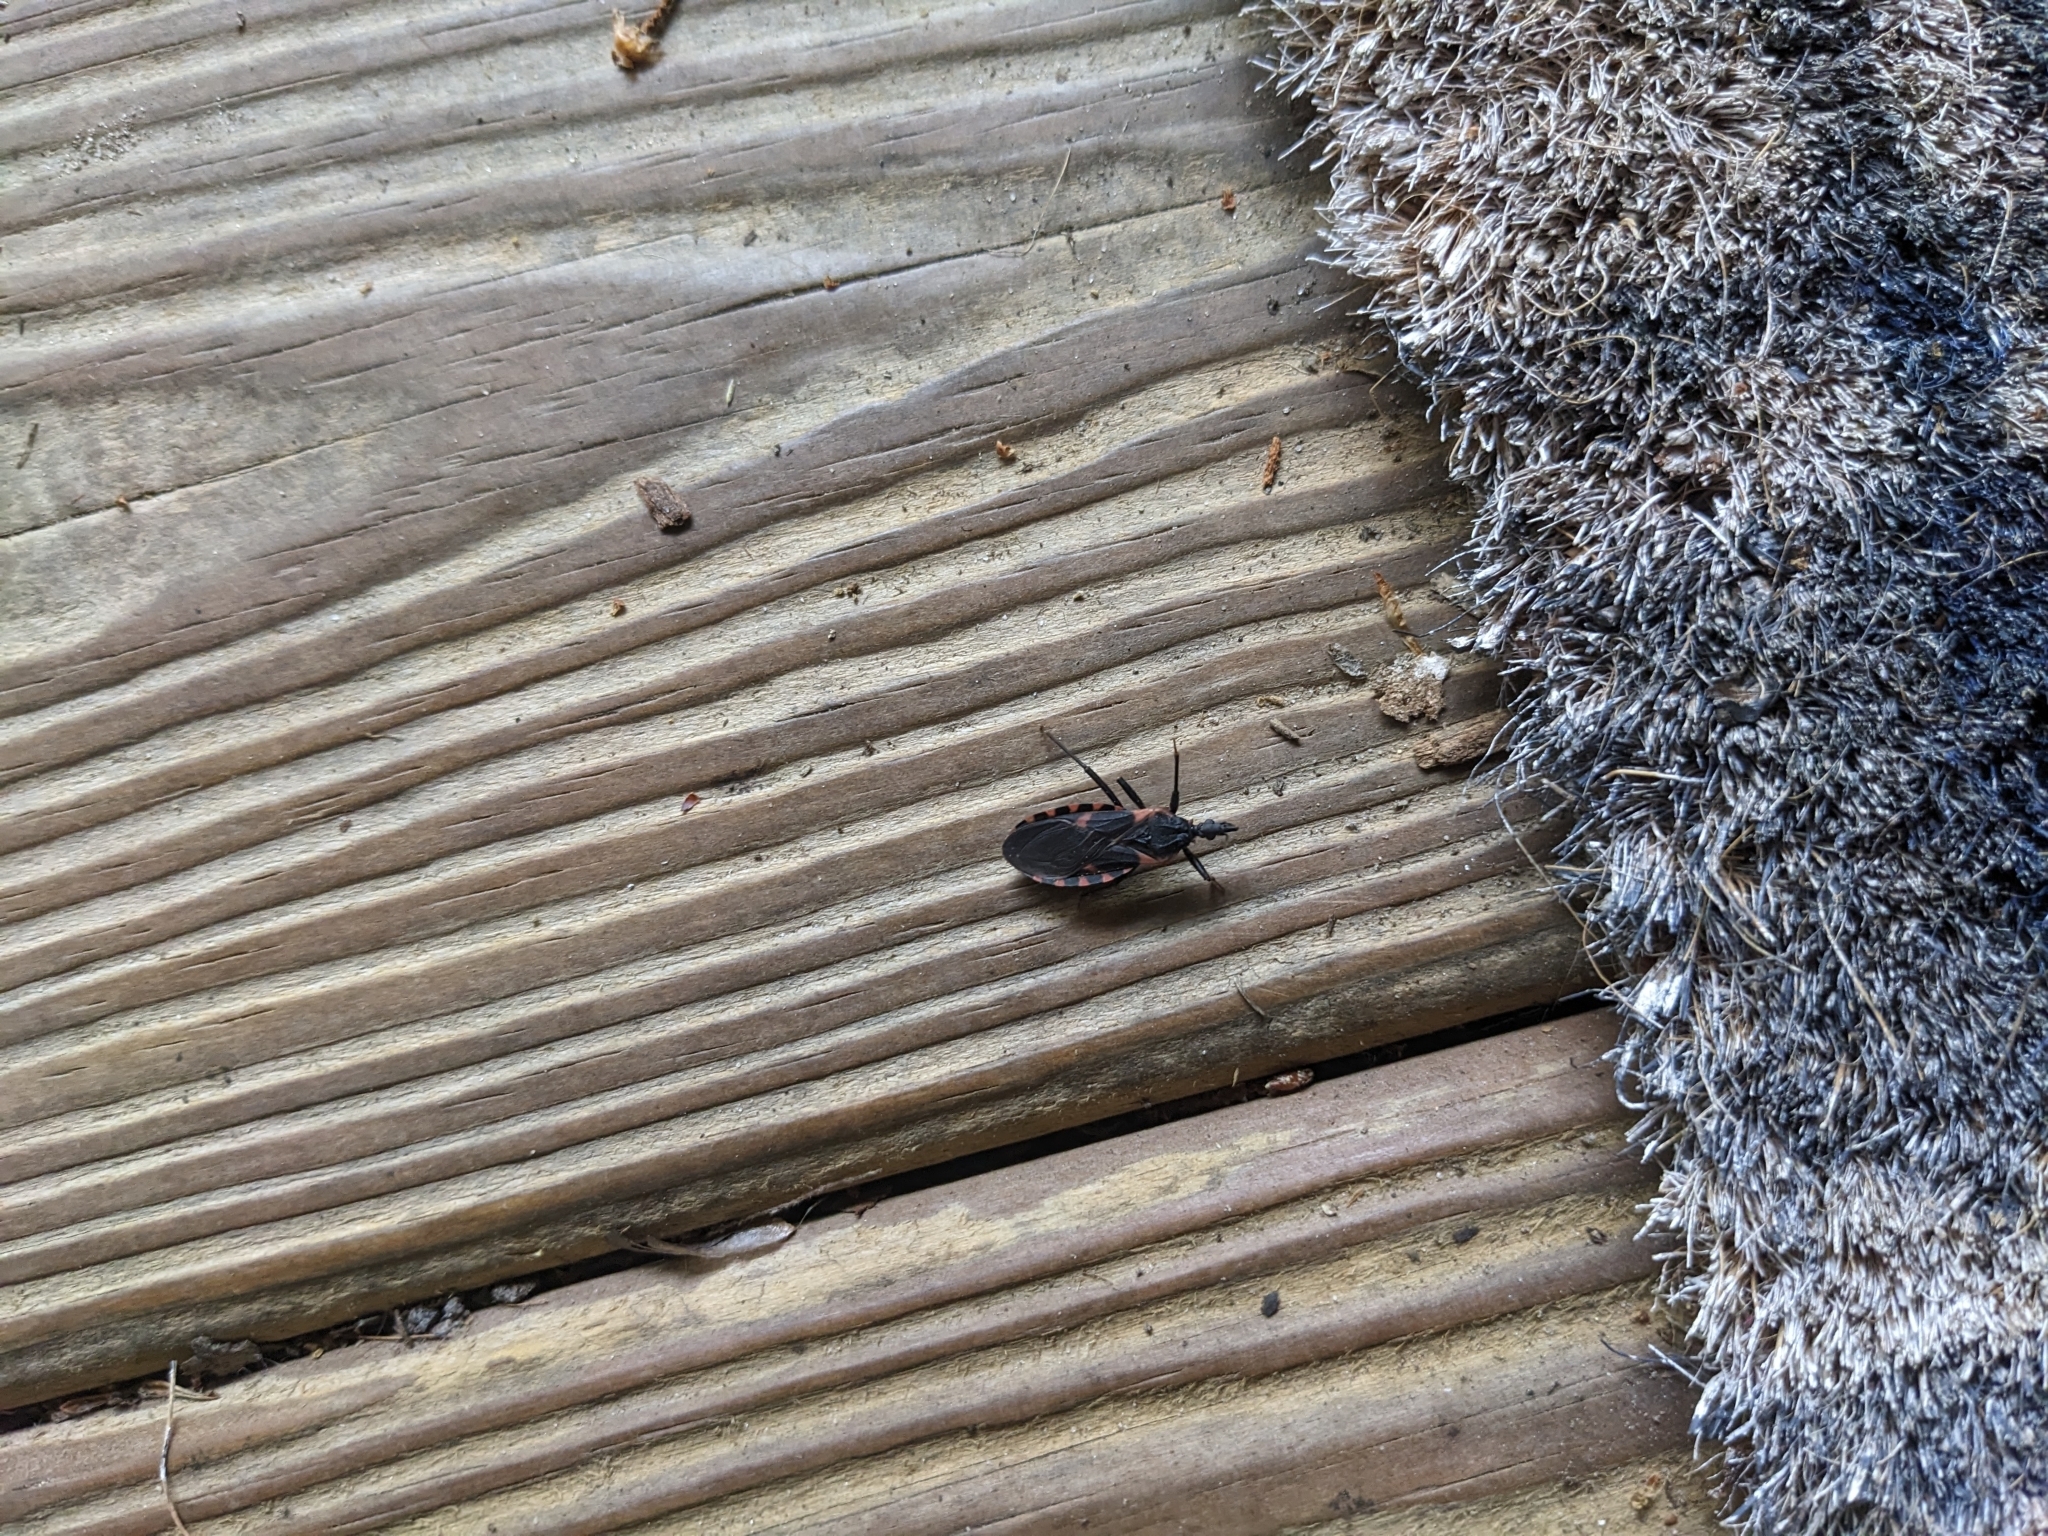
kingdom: Animalia
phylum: Arthropoda
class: Insecta
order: Hemiptera
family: Reduviidae
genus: Triatoma
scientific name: Triatoma sanguisuga
